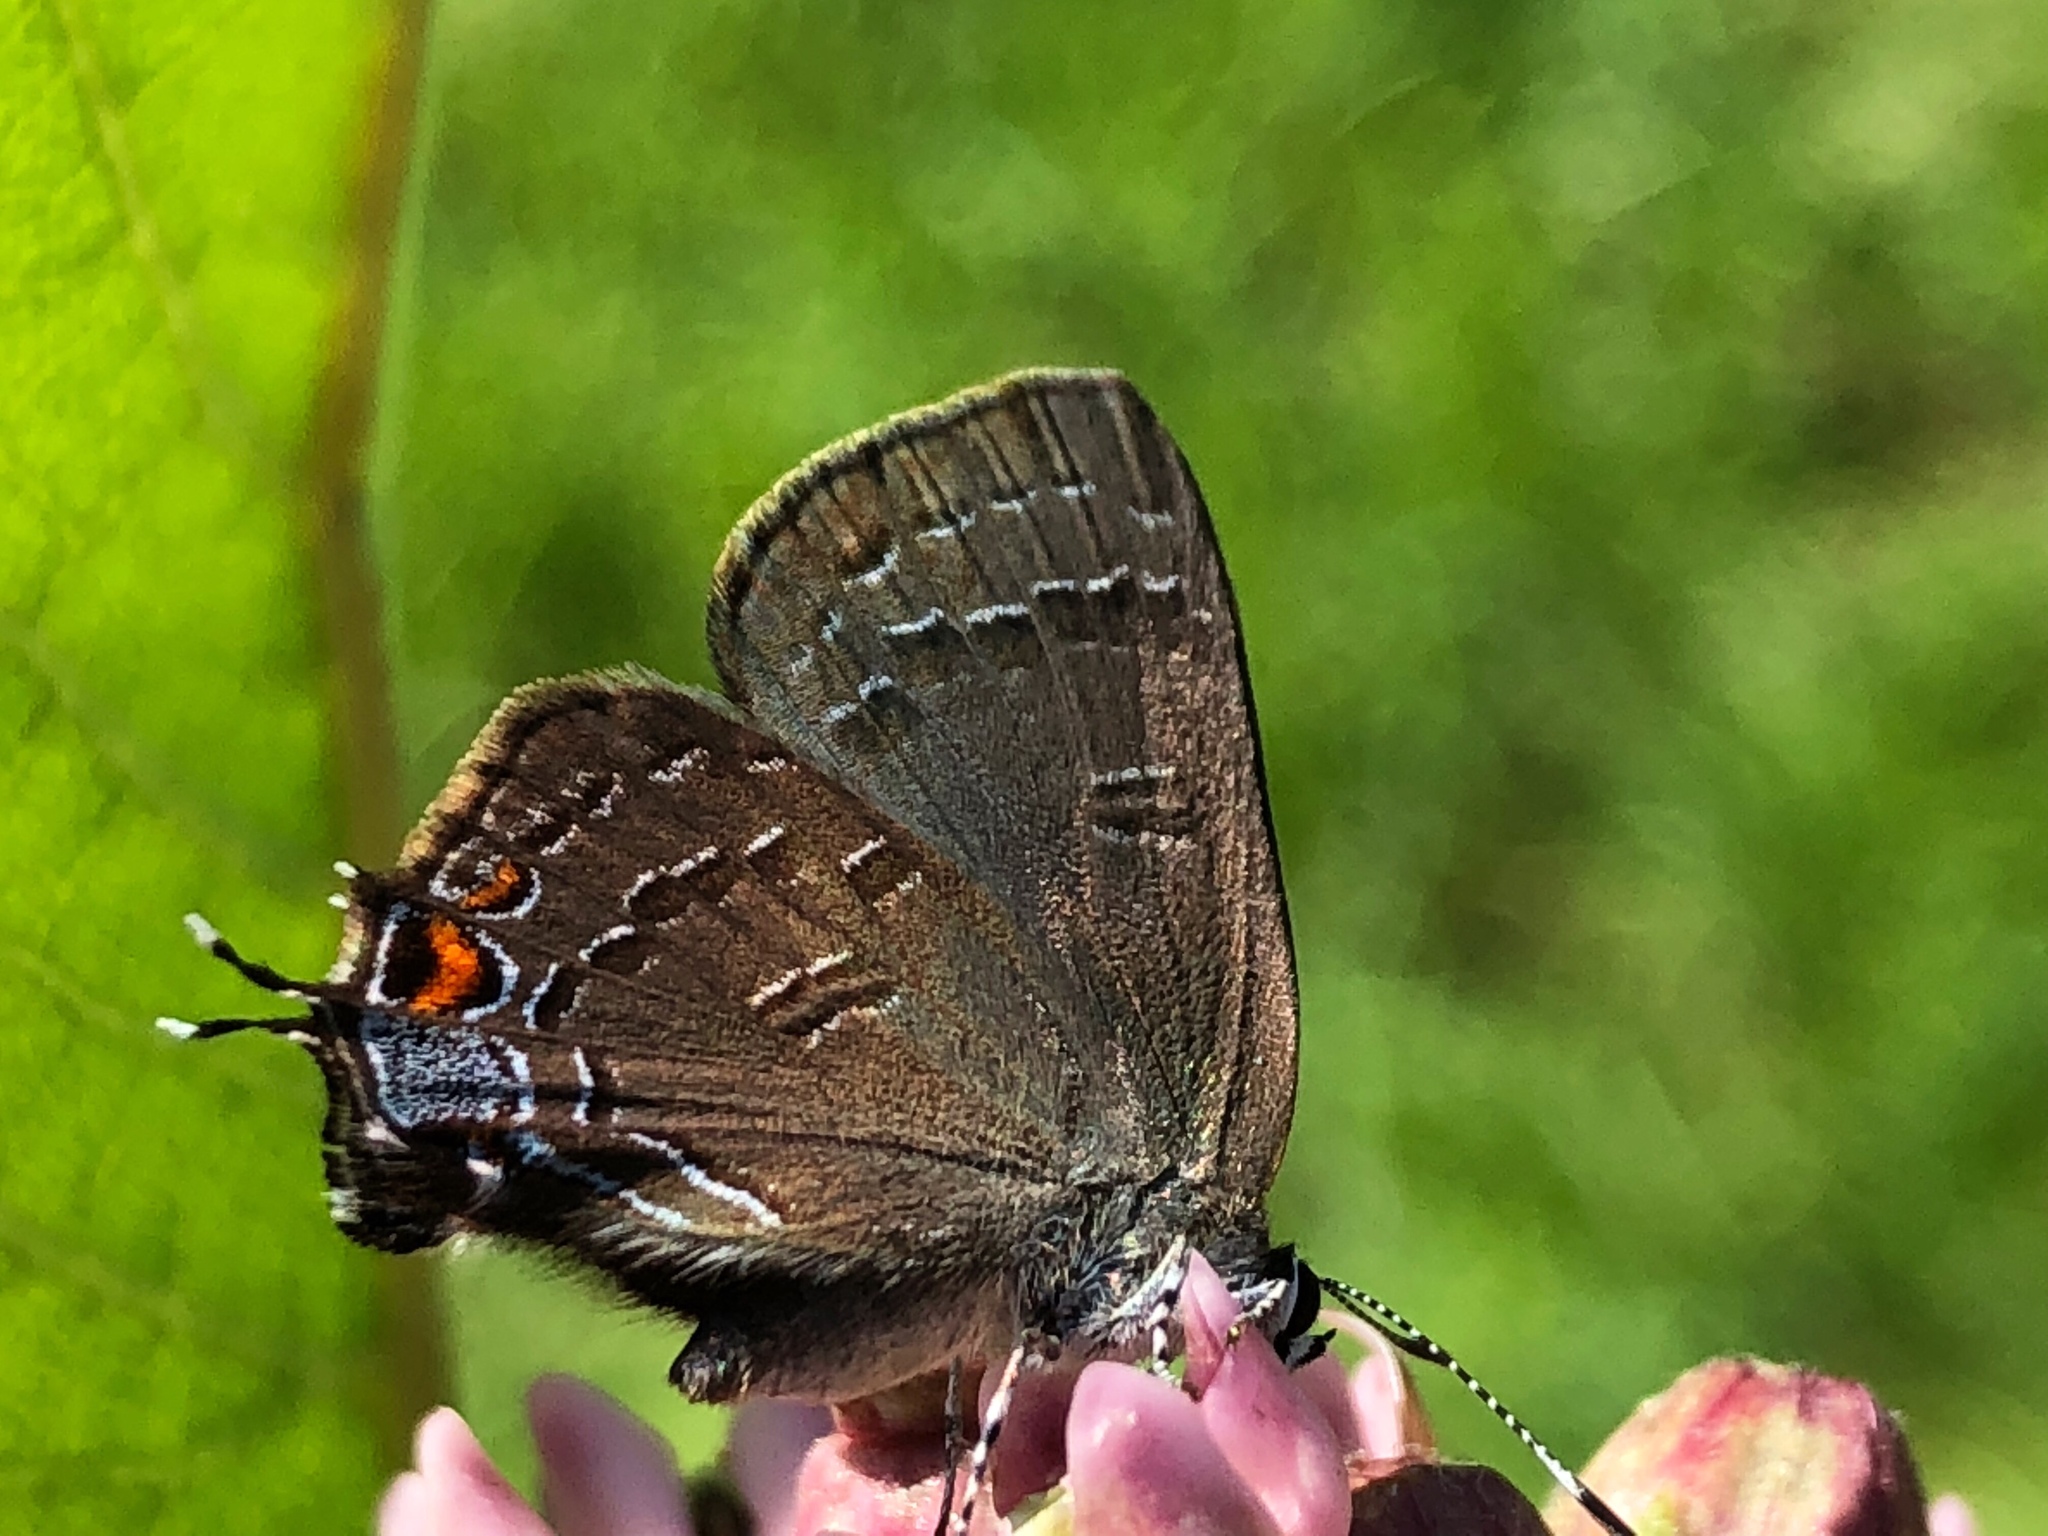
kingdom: Animalia
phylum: Arthropoda
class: Insecta
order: Lepidoptera
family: Lycaenidae
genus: Satyrium
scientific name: Satyrium calanus
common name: Banded hairstreak
